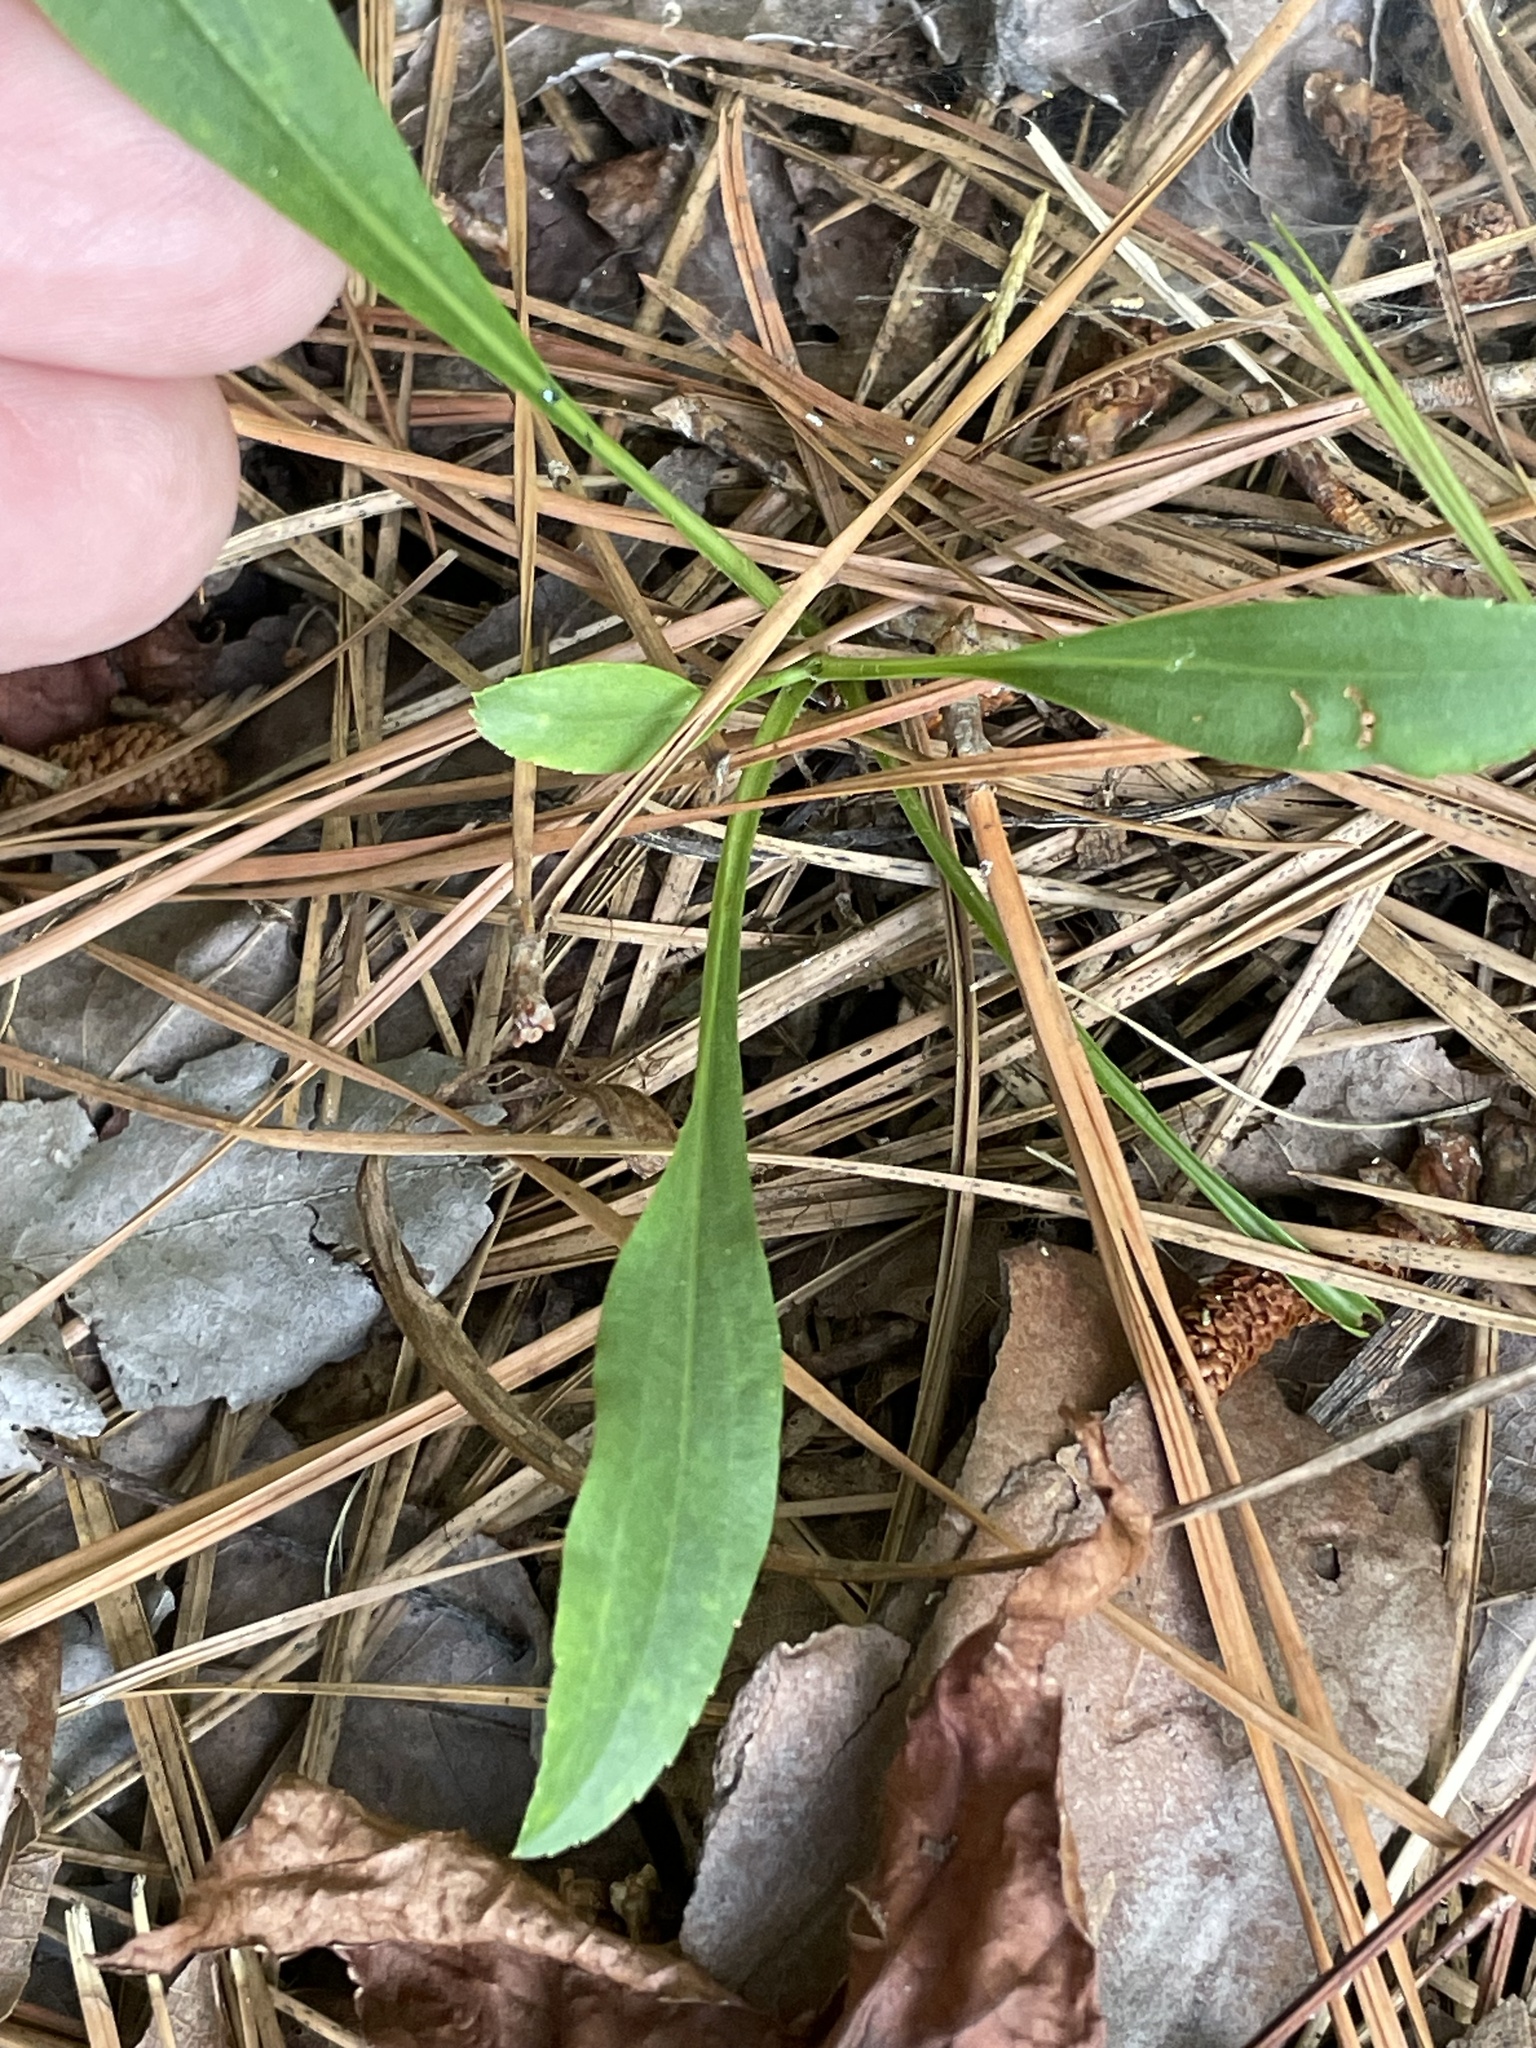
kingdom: Plantae
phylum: Tracheophyta
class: Magnoliopsida
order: Asterales
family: Asteraceae
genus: Solidago
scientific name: Solidago pinetorum
